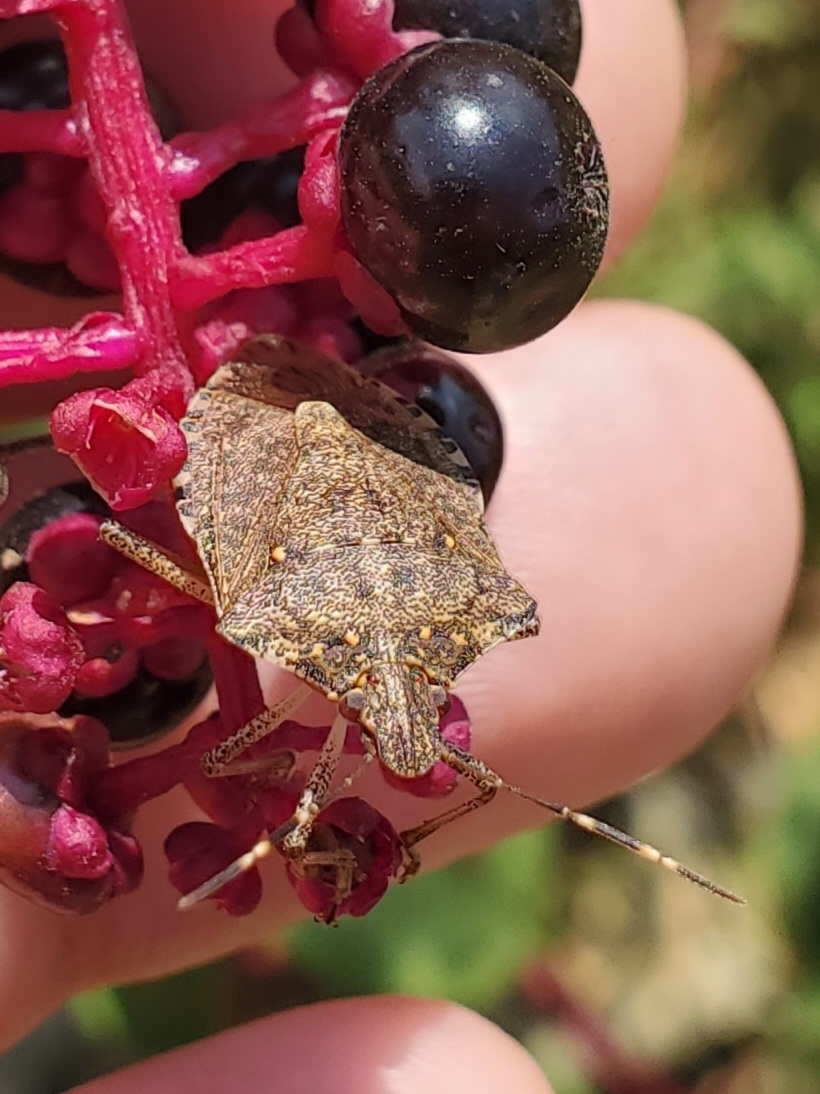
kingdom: Animalia
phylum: Arthropoda
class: Insecta
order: Hemiptera
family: Pentatomidae
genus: Halyomorpha
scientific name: Halyomorpha halys
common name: Brown marmorated stink bug
